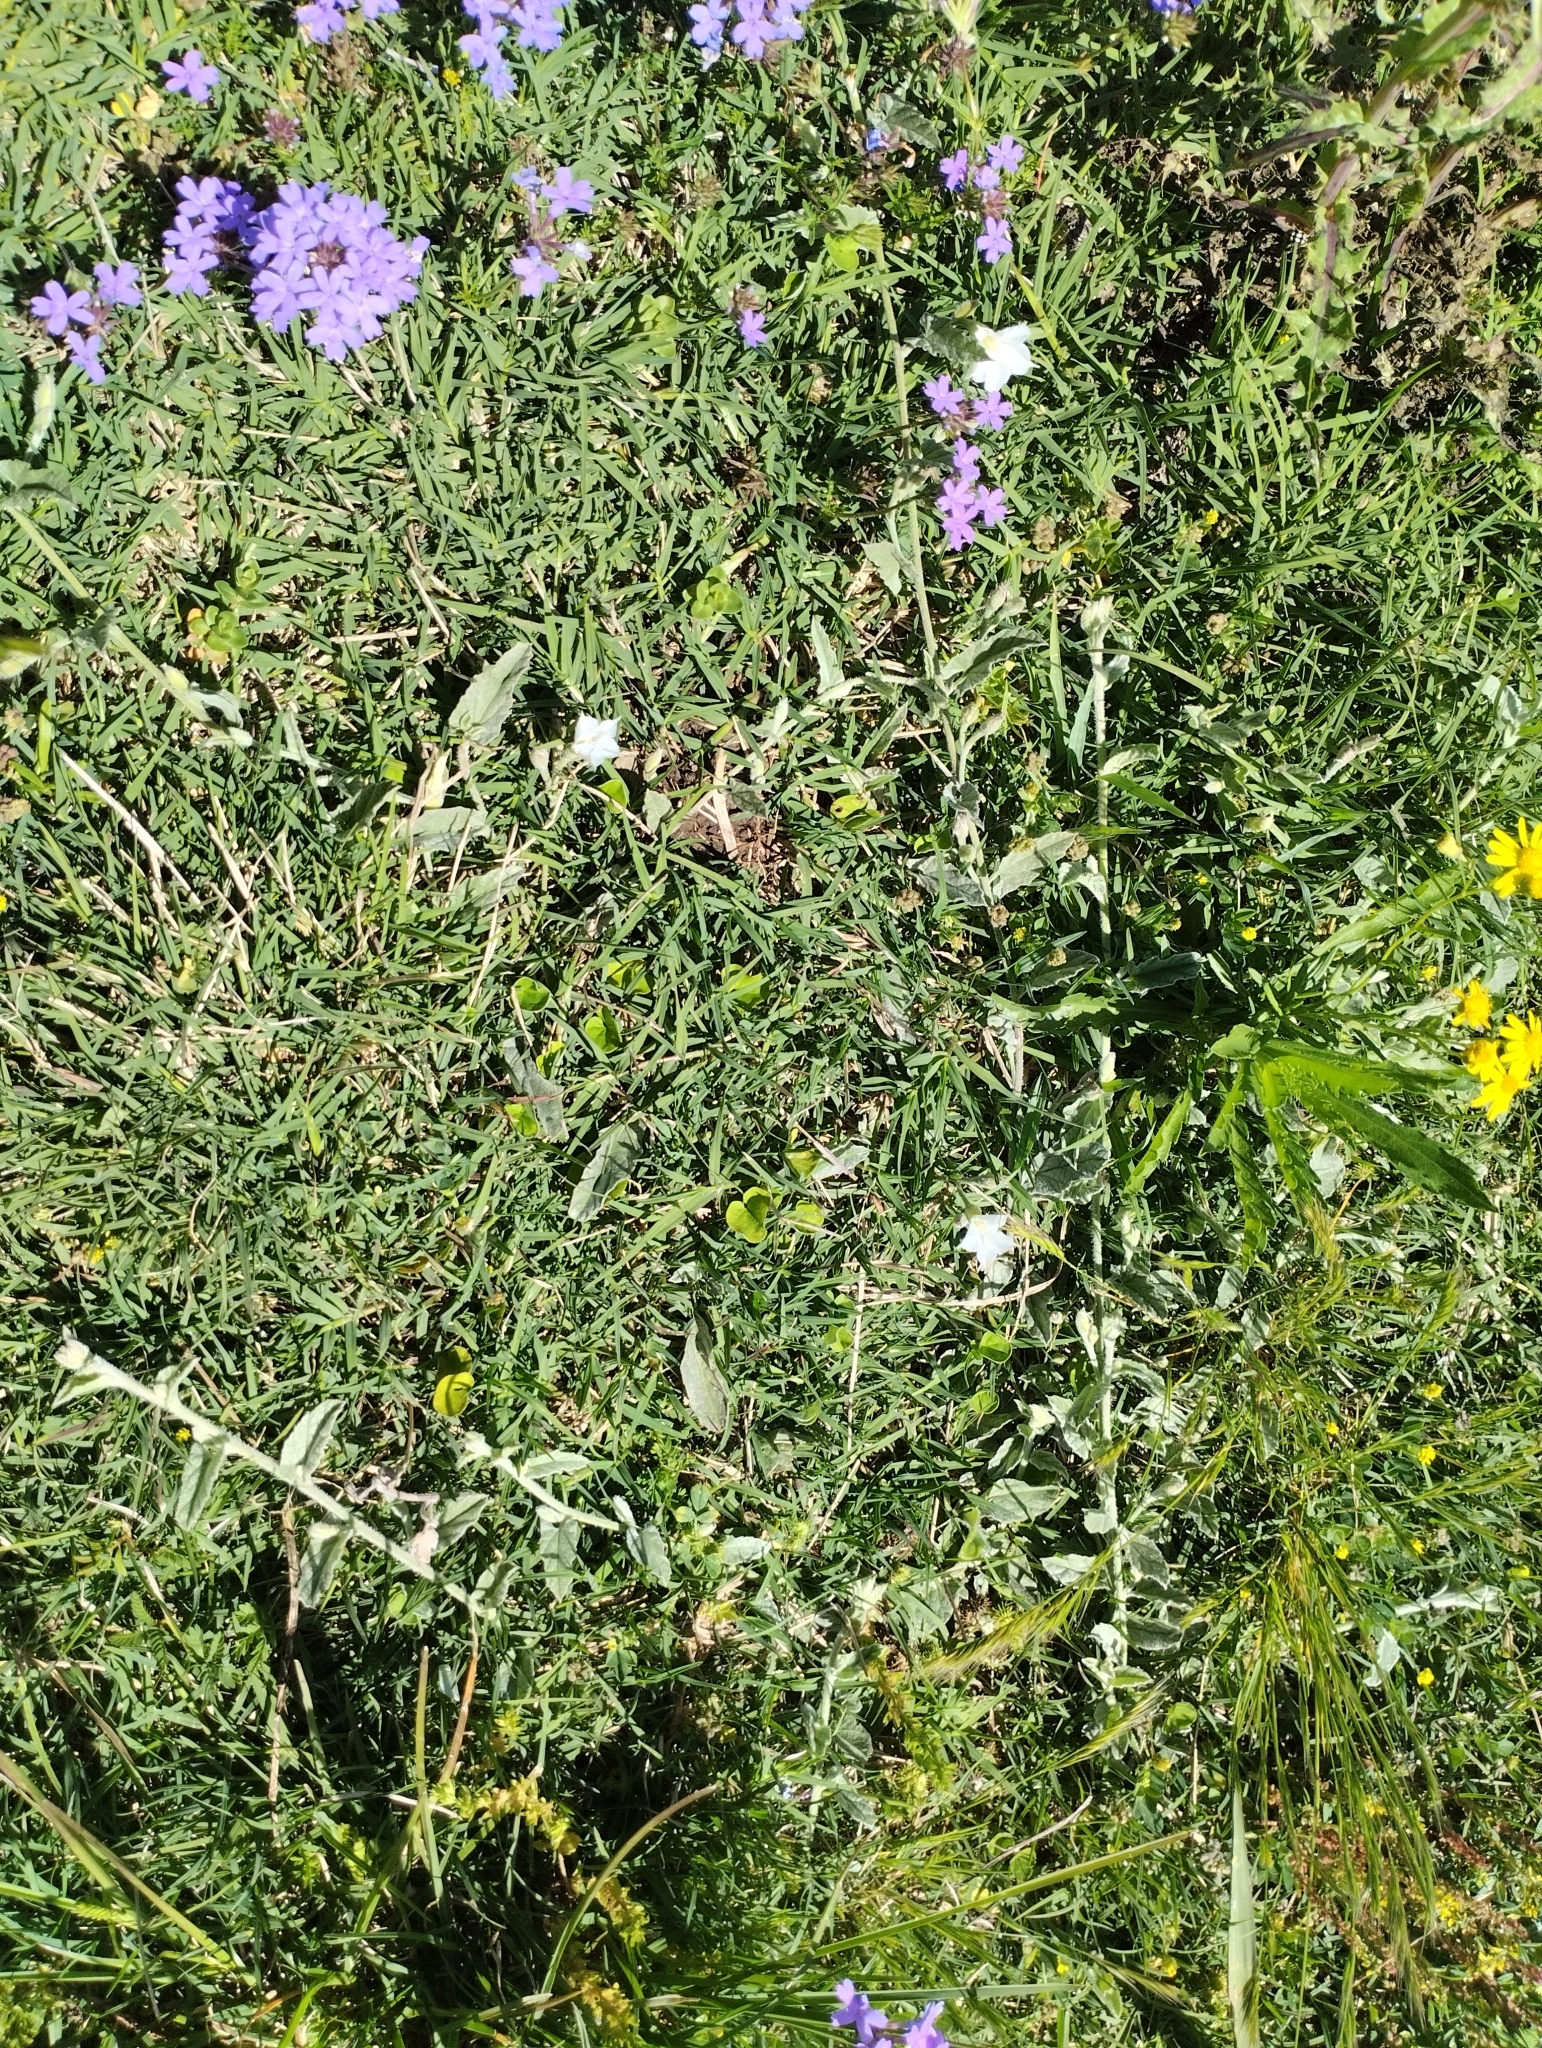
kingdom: Plantae
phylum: Tracheophyta
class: Magnoliopsida
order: Solanales
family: Convolvulaceae
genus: Convolvulus
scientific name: Convolvulus hermanniae
